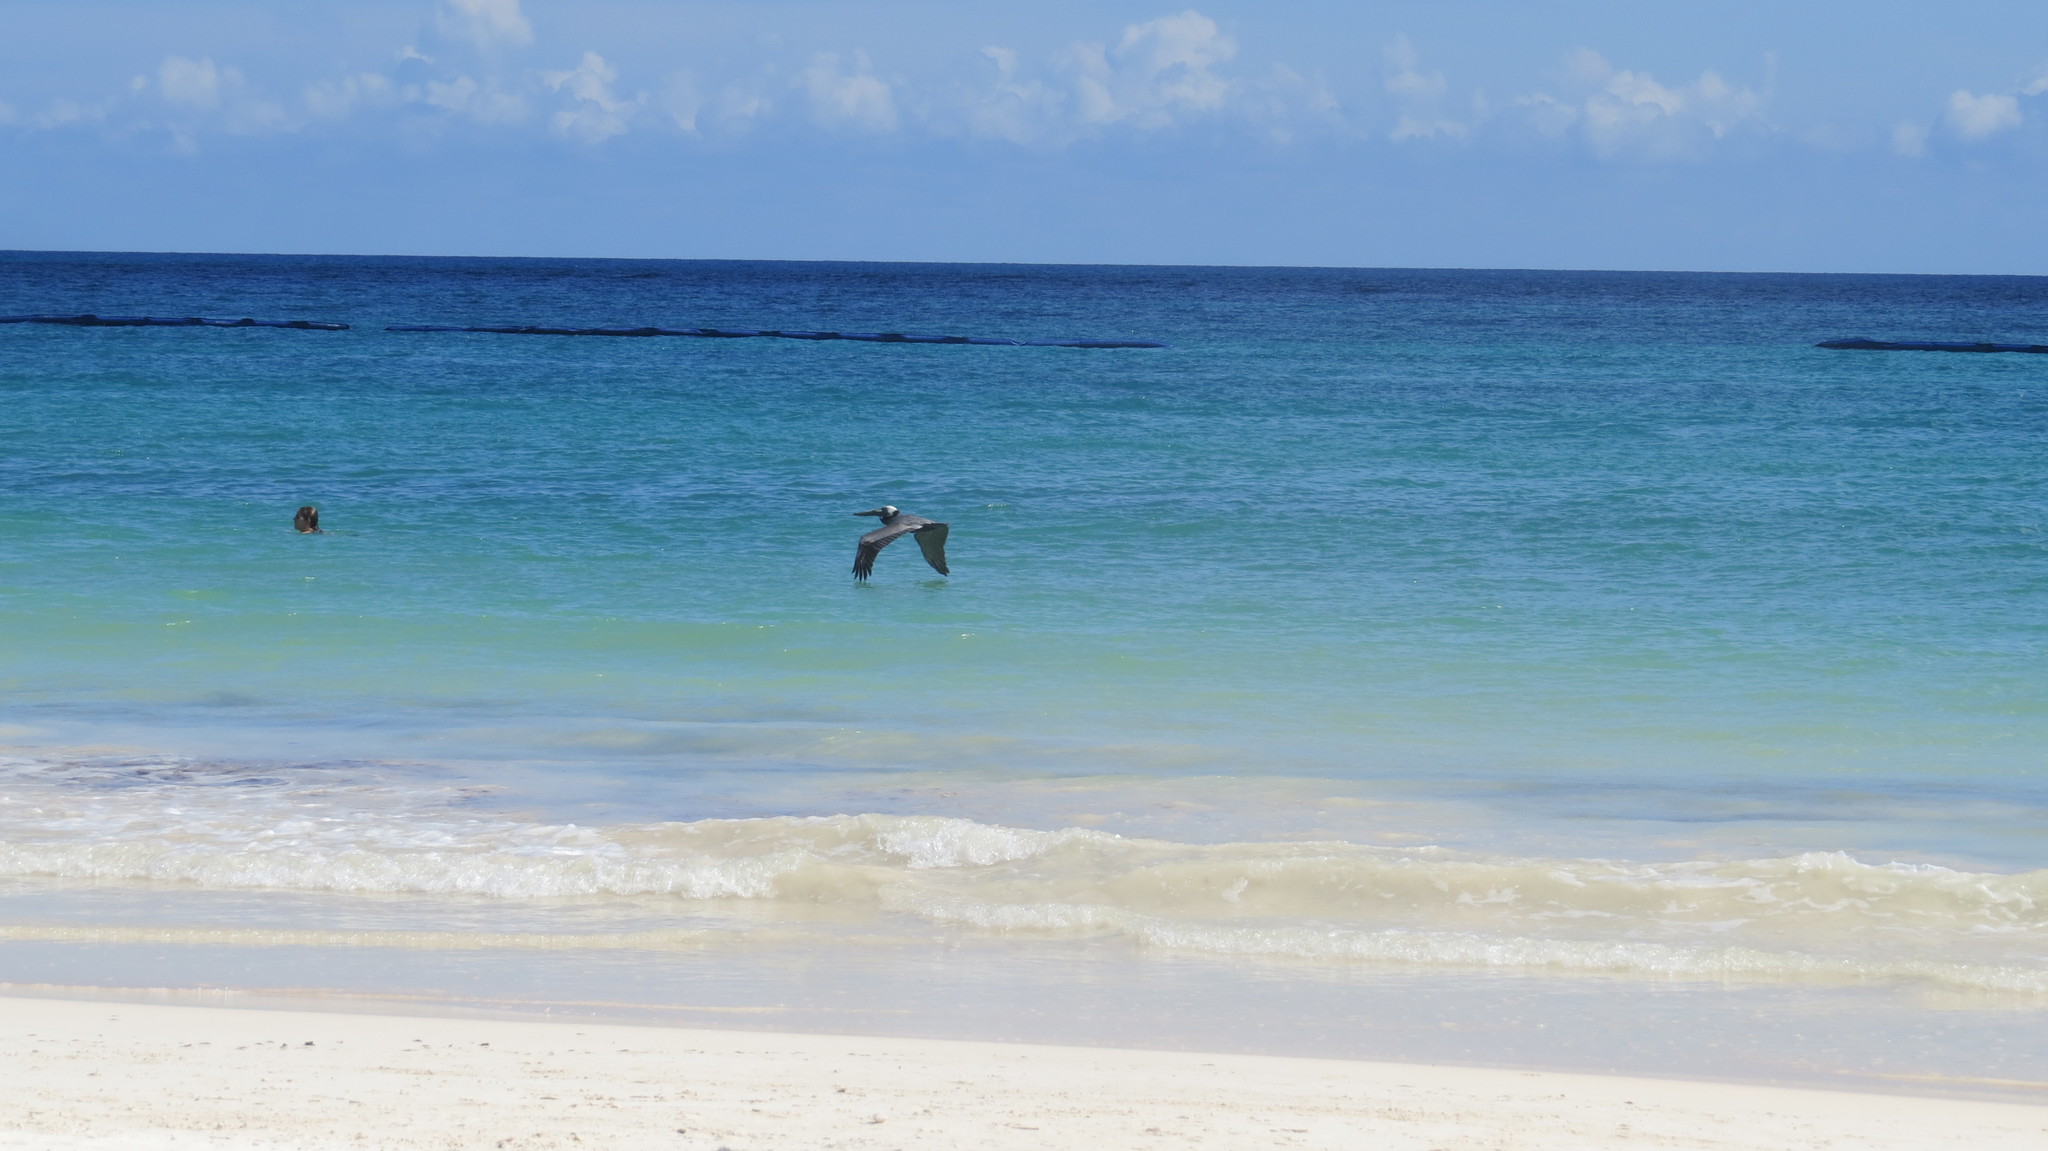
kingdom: Animalia
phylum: Chordata
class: Aves
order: Pelecaniformes
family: Pelecanidae
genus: Pelecanus
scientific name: Pelecanus occidentalis
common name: Brown pelican
